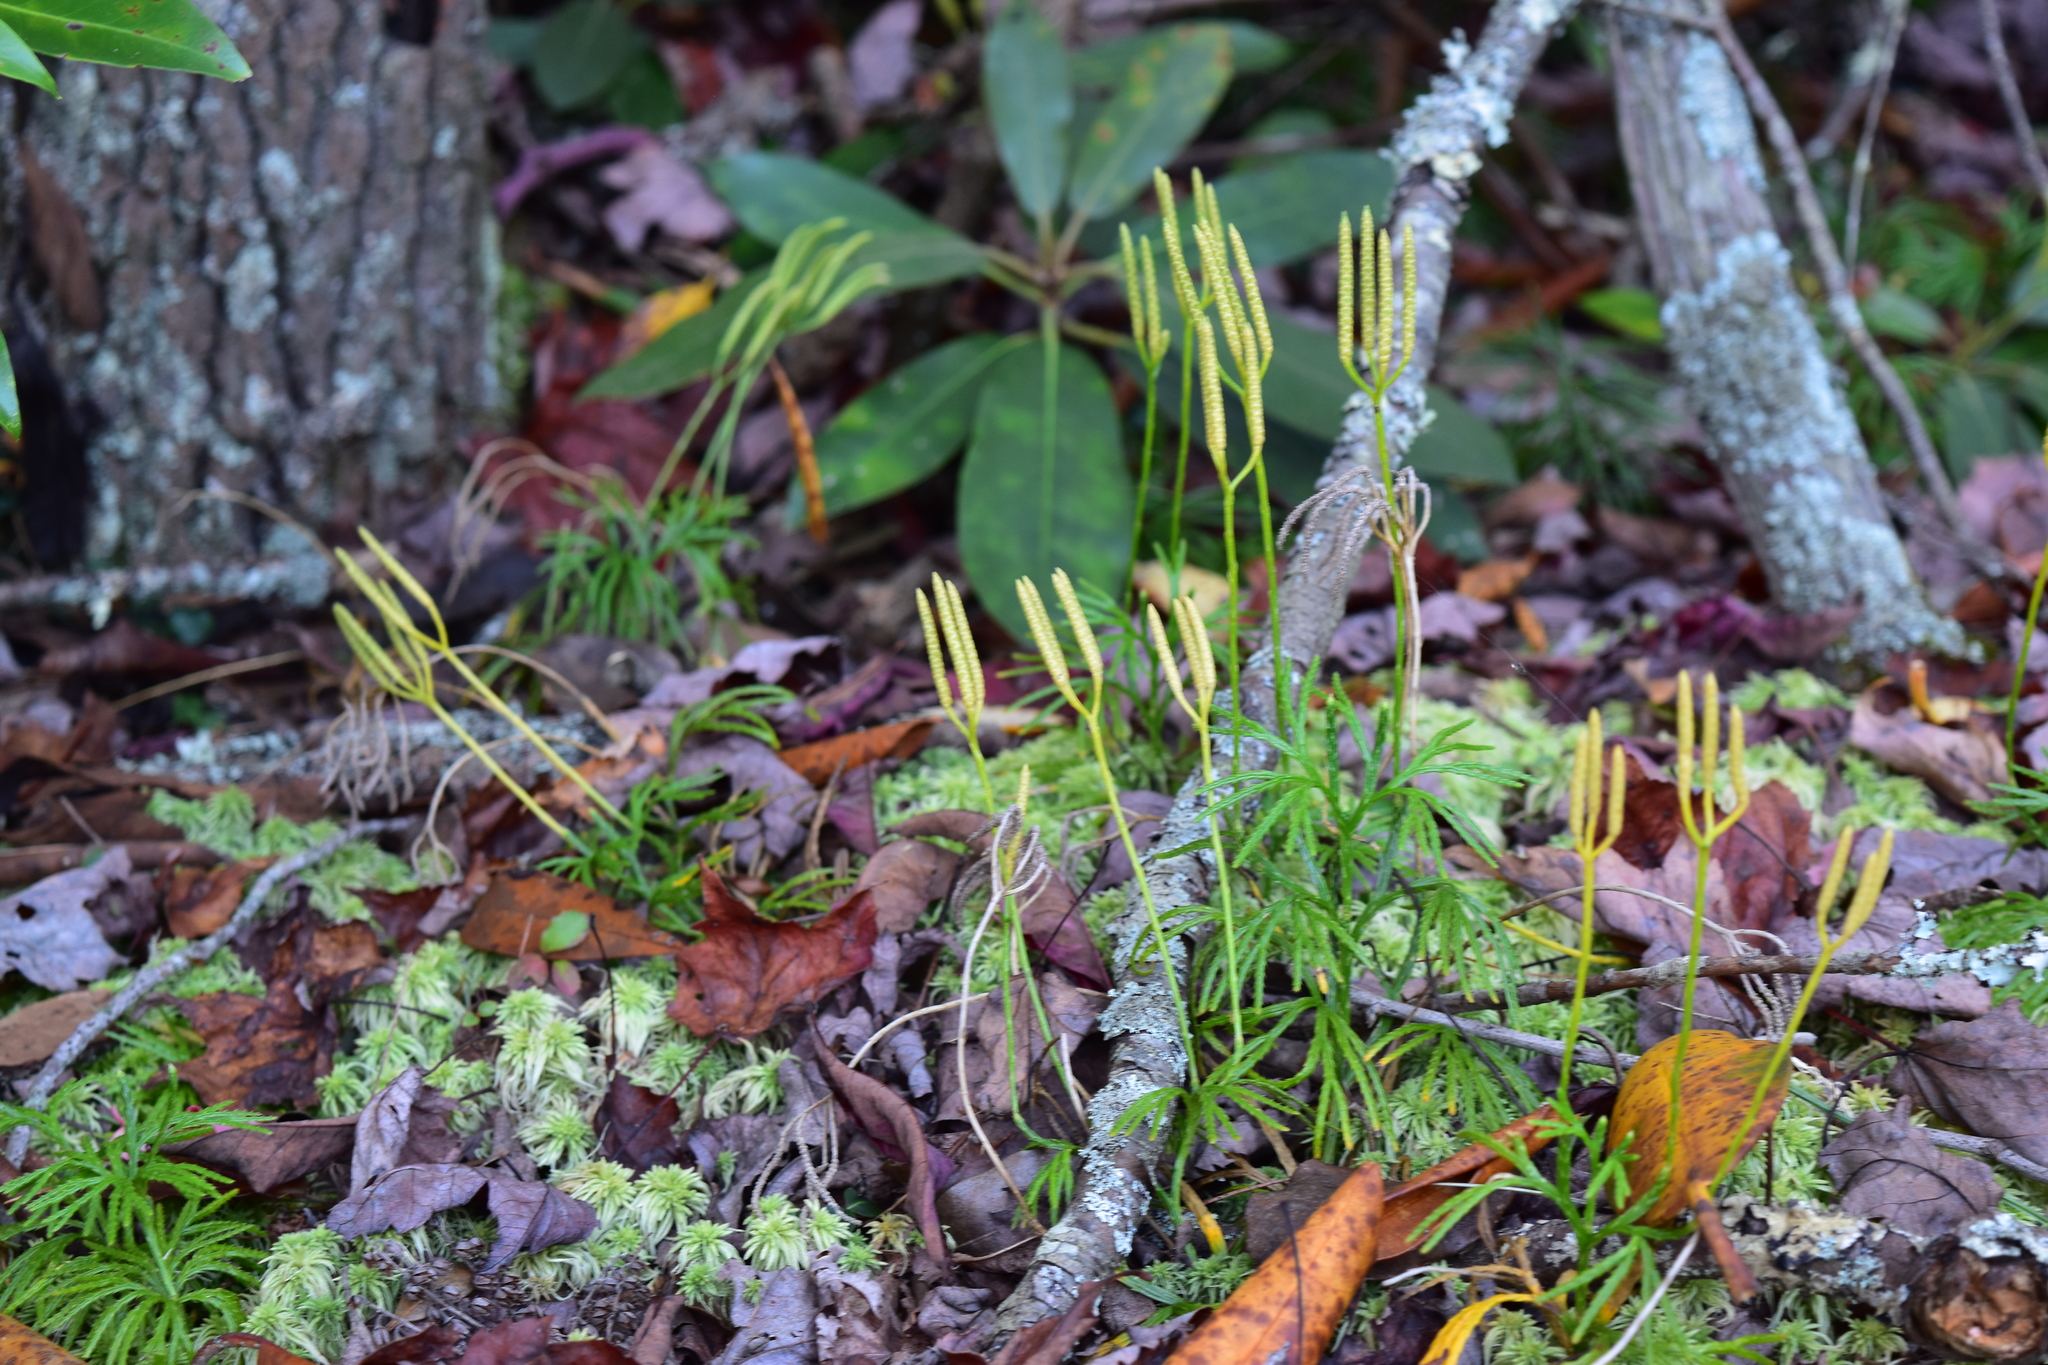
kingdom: Plantae
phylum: Tracheophyta
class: Lycopodiopsida
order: Lycopodiales
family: Lycopodiaceae
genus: Diphasiastrum
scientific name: Diphasiastrum digitatum
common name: Southern running-pine
